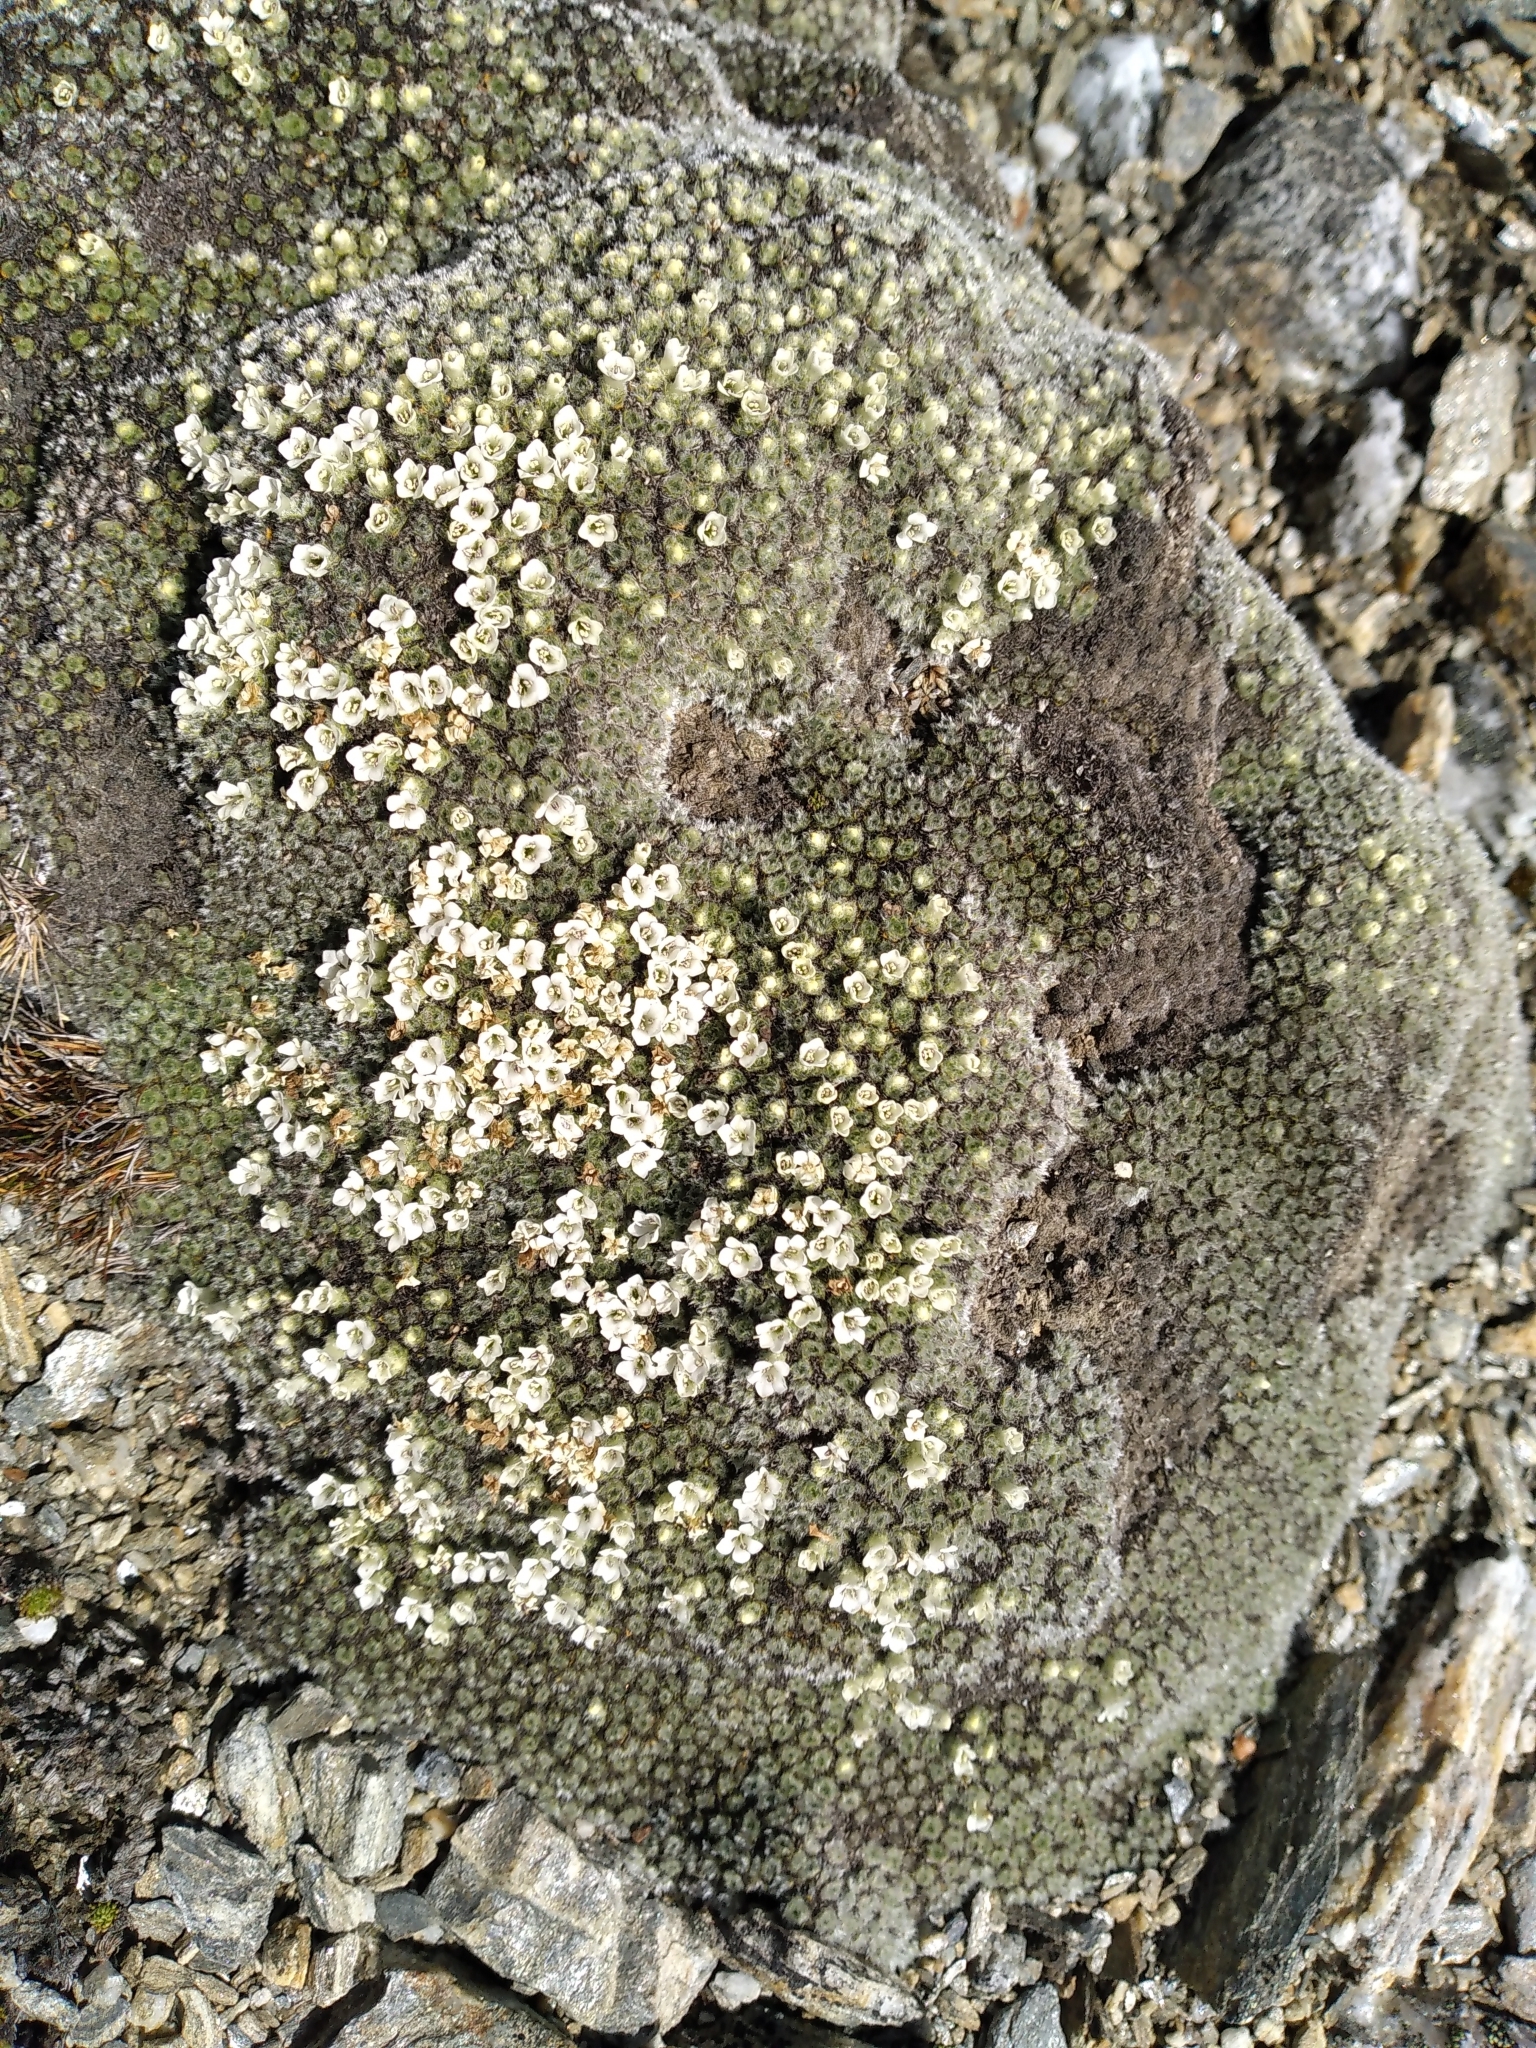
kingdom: Plantae
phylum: Tracheophyta
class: Magnoliopsida
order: Lamiales
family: Plantaginaceae
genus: Veronica
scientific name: Veronica thomsonii
